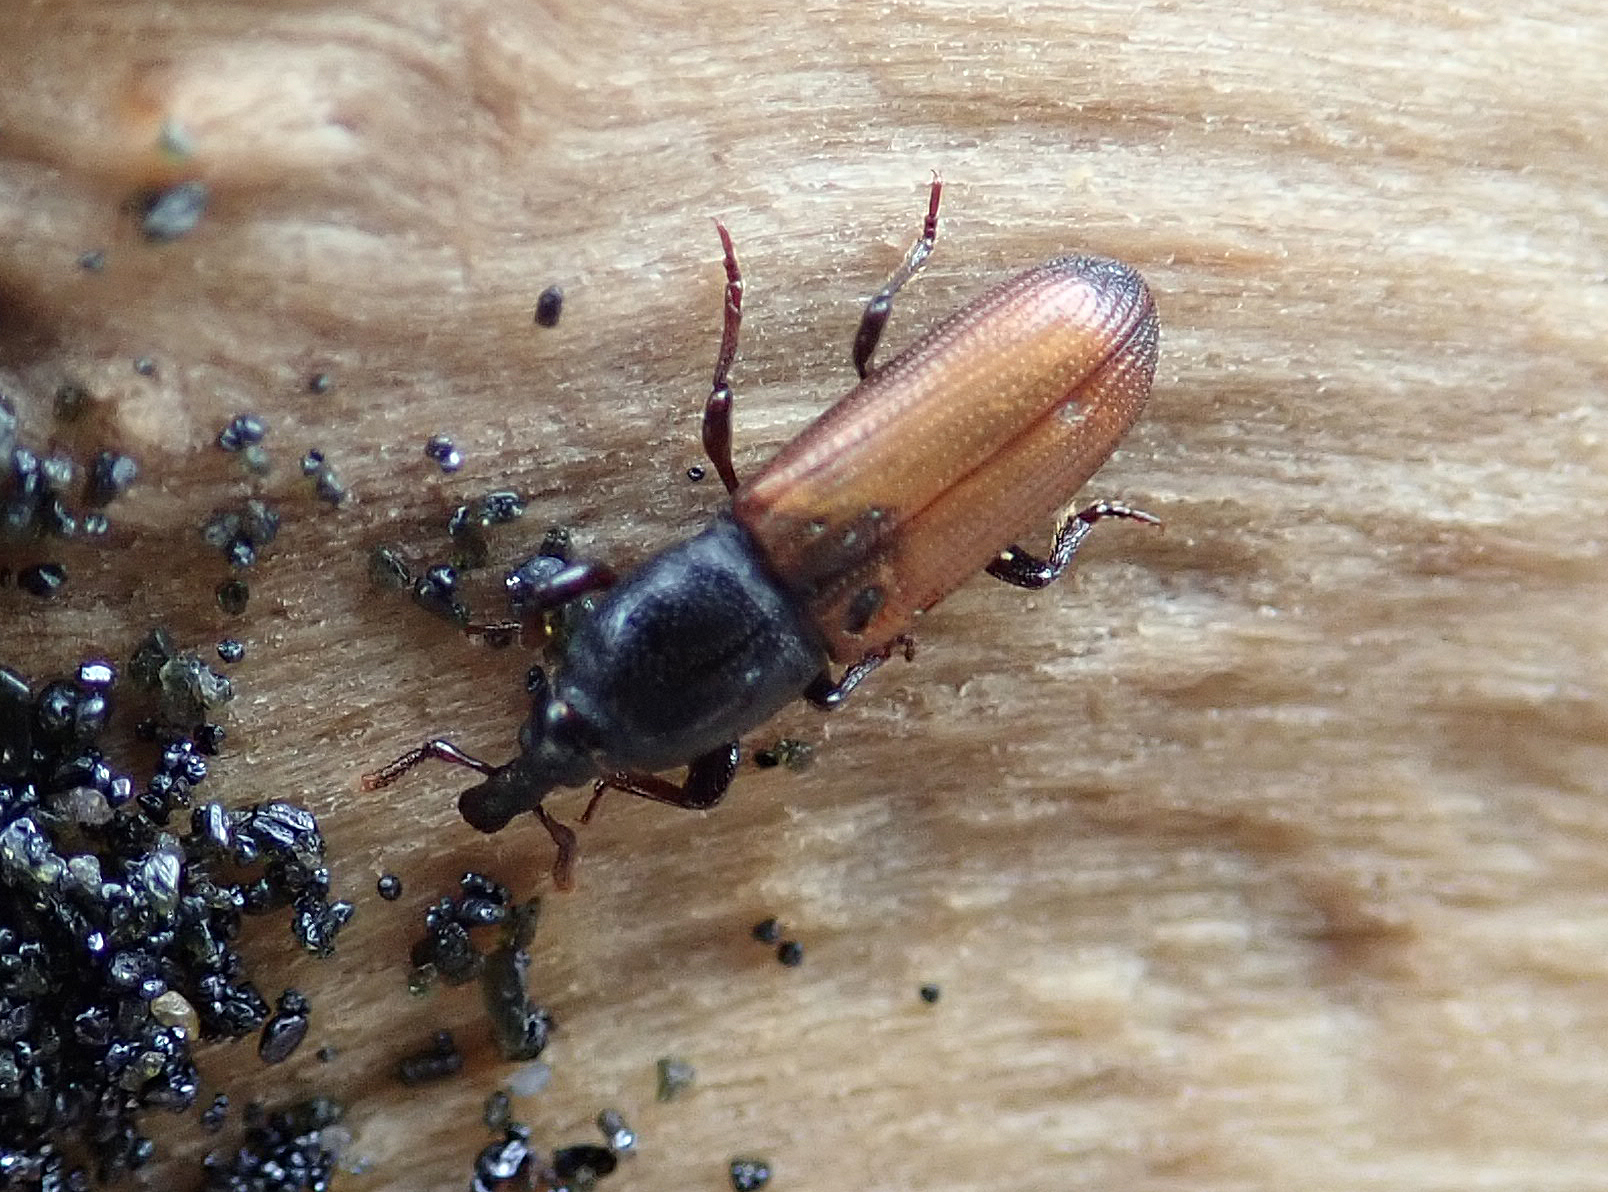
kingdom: Animalia
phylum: Arthropoda
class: Insecta
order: Coleoptera
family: Curculionidae
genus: Mesites
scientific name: Mesites pallidipennis
